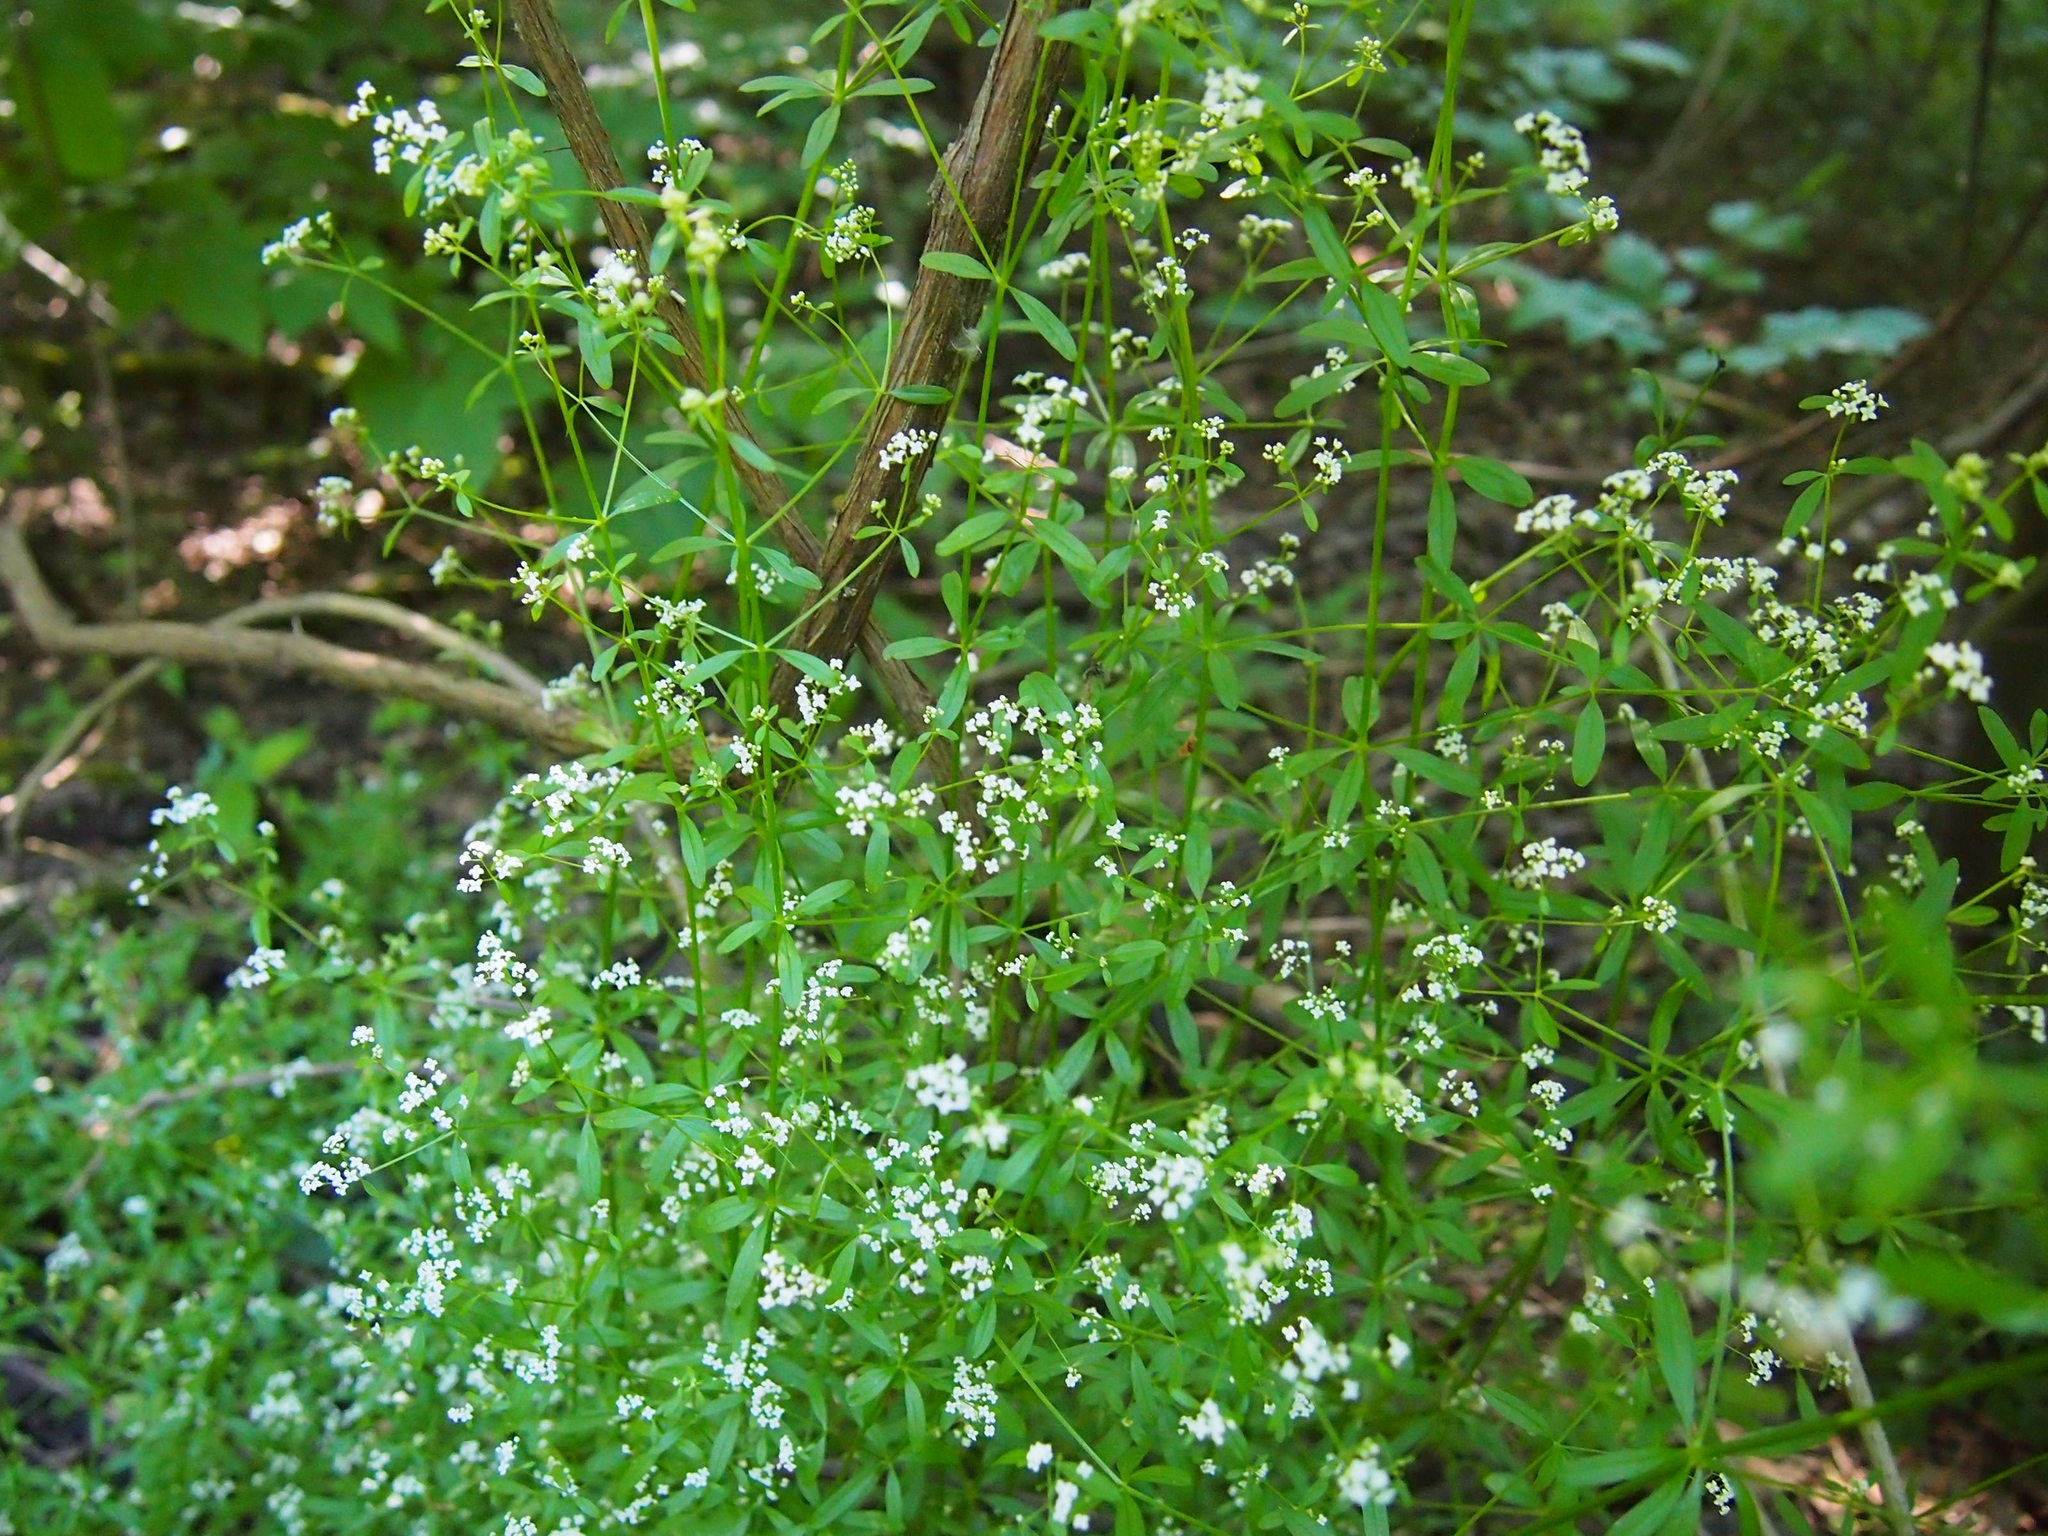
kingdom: Plantae
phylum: Tracheophyta
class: Magnoliopsida
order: Gentianales
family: Rubiaceae
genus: Galium
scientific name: Galium palustre
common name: Common marsh-bedstraw
